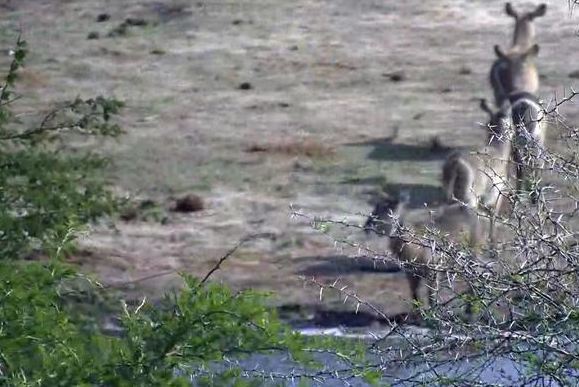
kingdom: Animalia
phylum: Chordata
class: Mammalia
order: Artiodactyla
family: Bovidae
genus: Kobus
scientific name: Kobus ellipsiprymnus
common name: Waterbuck
